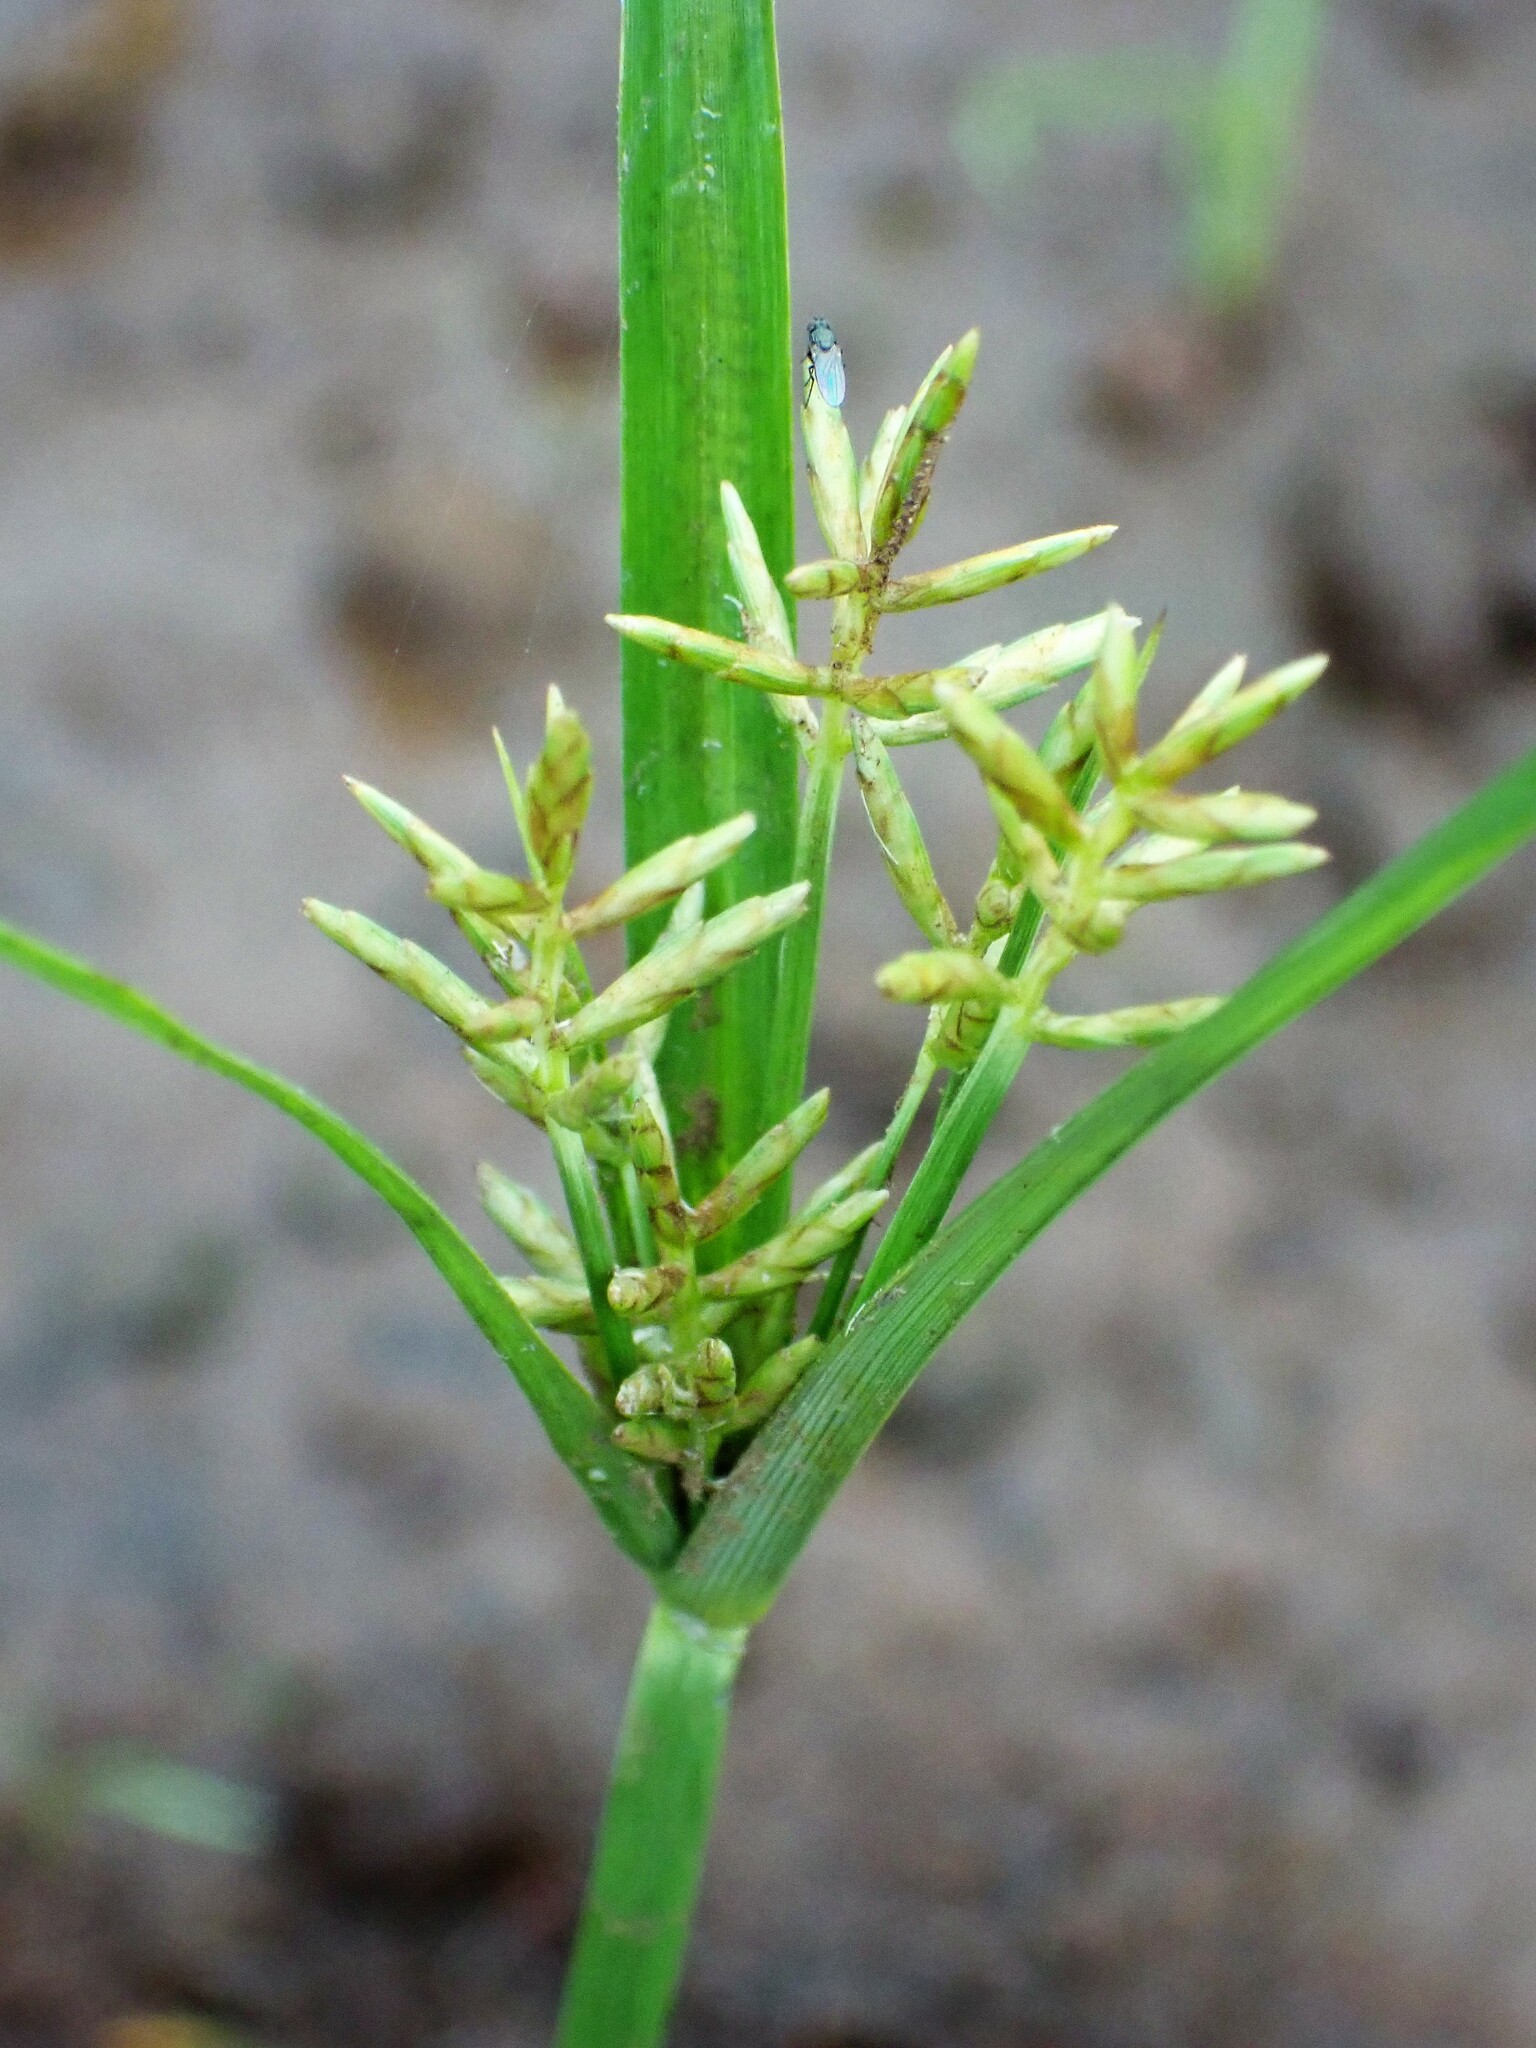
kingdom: Plantae
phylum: Tracheophyta
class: Liliopsida
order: Poales
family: Cyperaceae
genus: Cyperus
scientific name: Cyperus esculentus
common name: Yellow nutsedge
